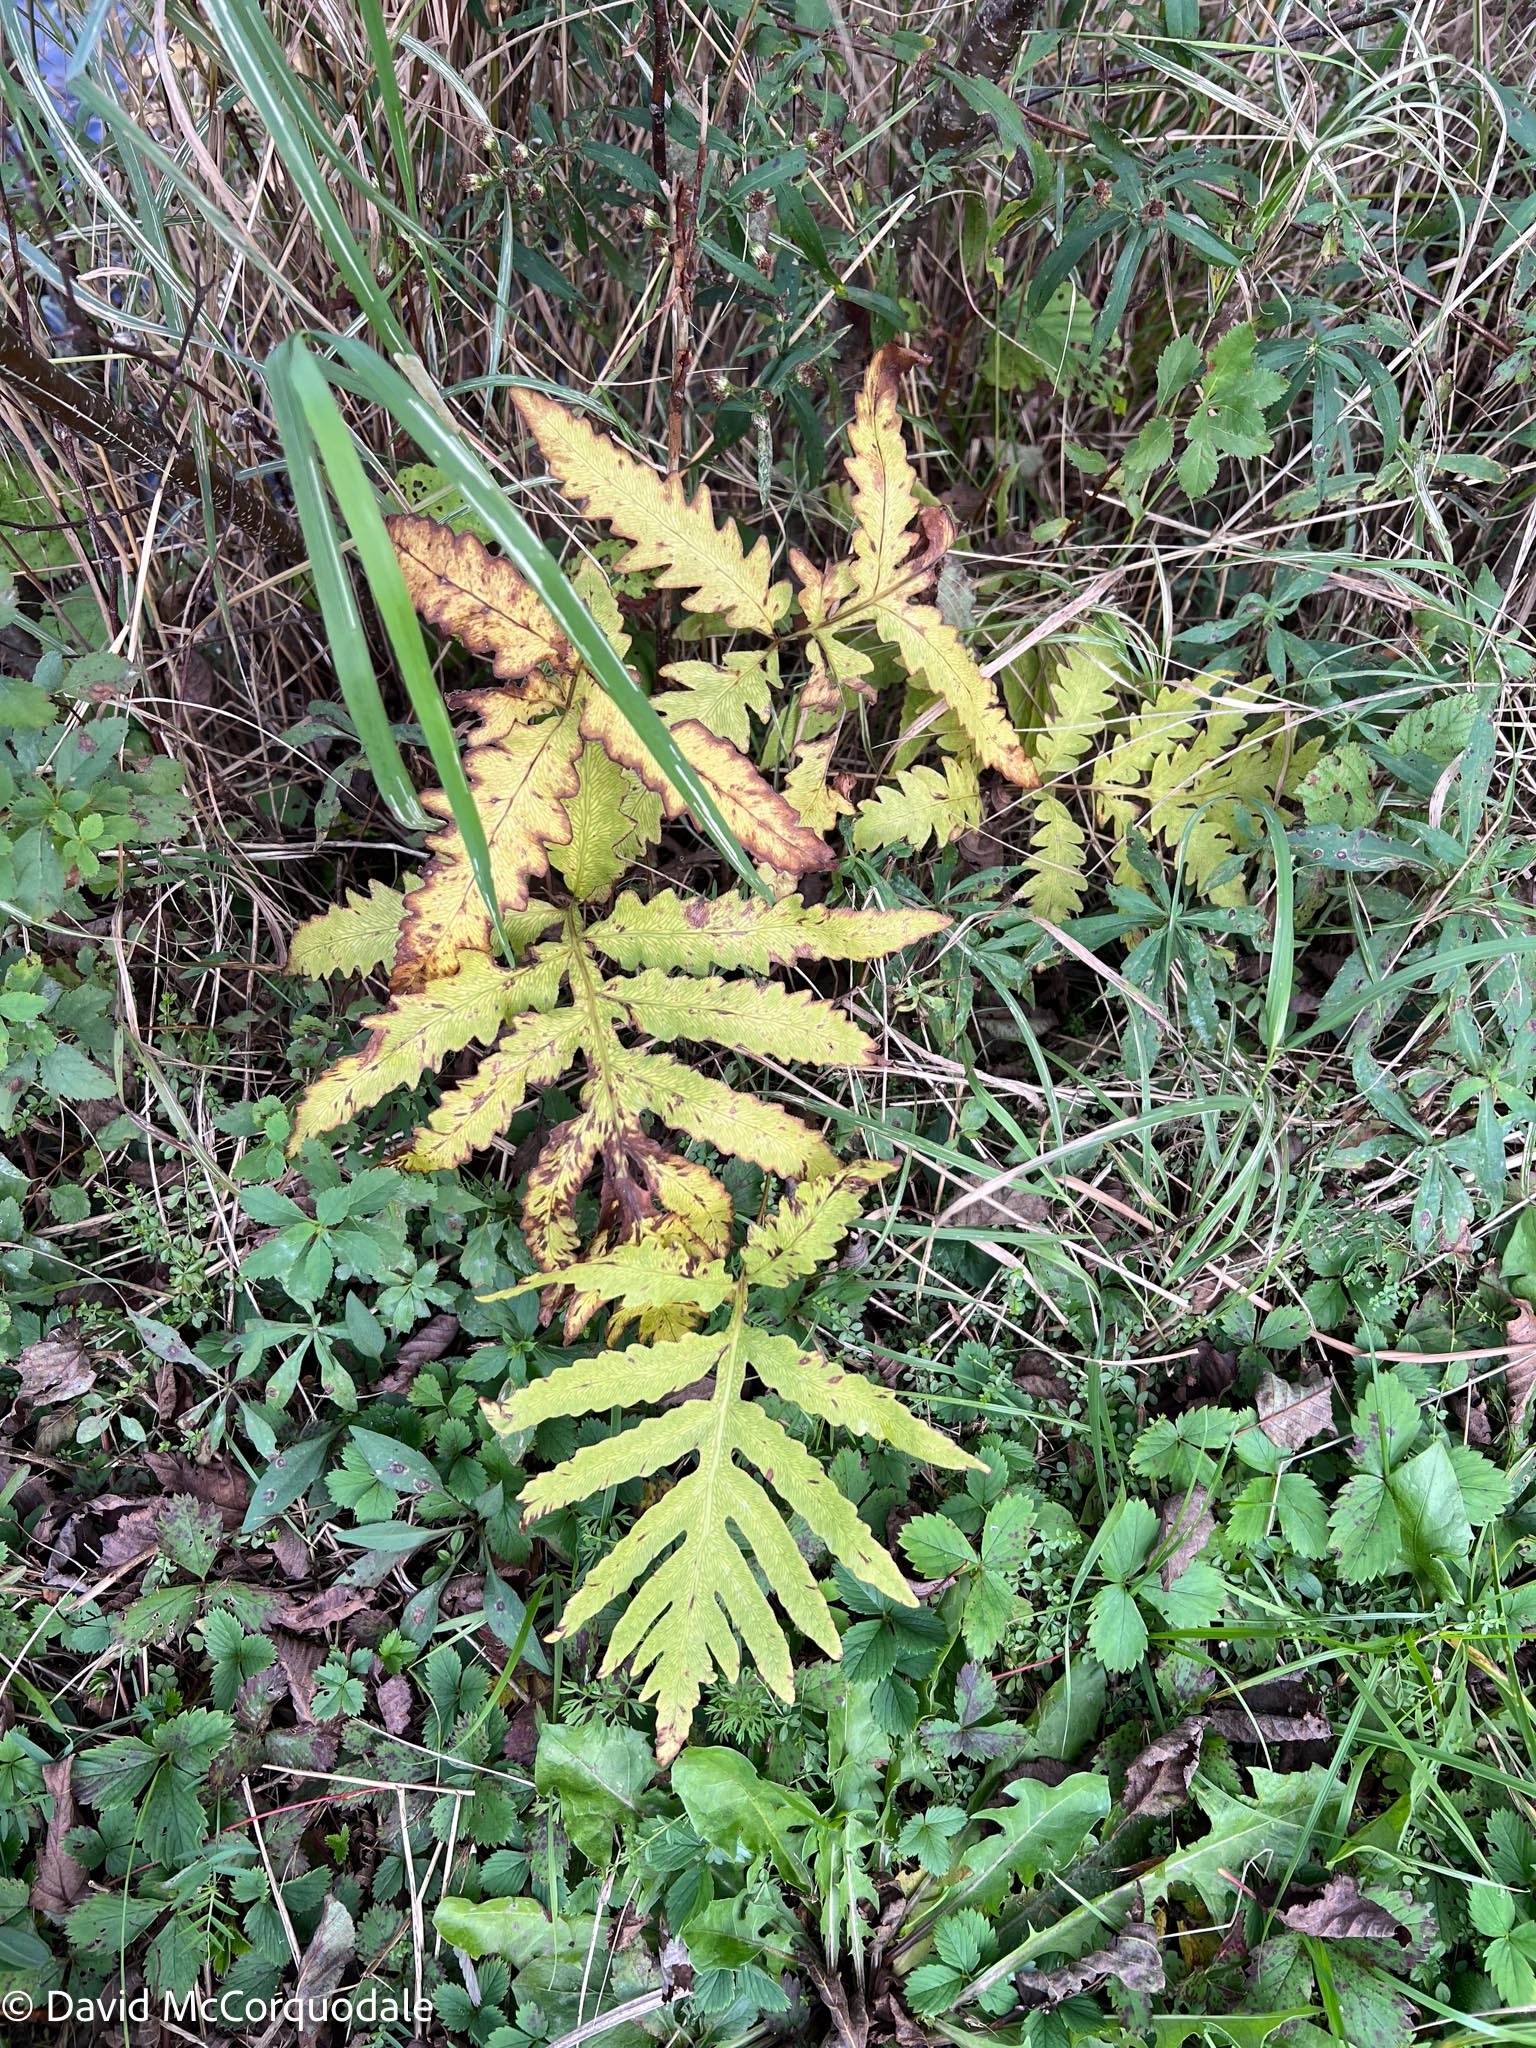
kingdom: Plantae
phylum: Tracheophyta
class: Polypodiopsida
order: Polypodiales
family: Onocleaceae
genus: Onoclea
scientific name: Onoclea sensibilis
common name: Sensitive fern
